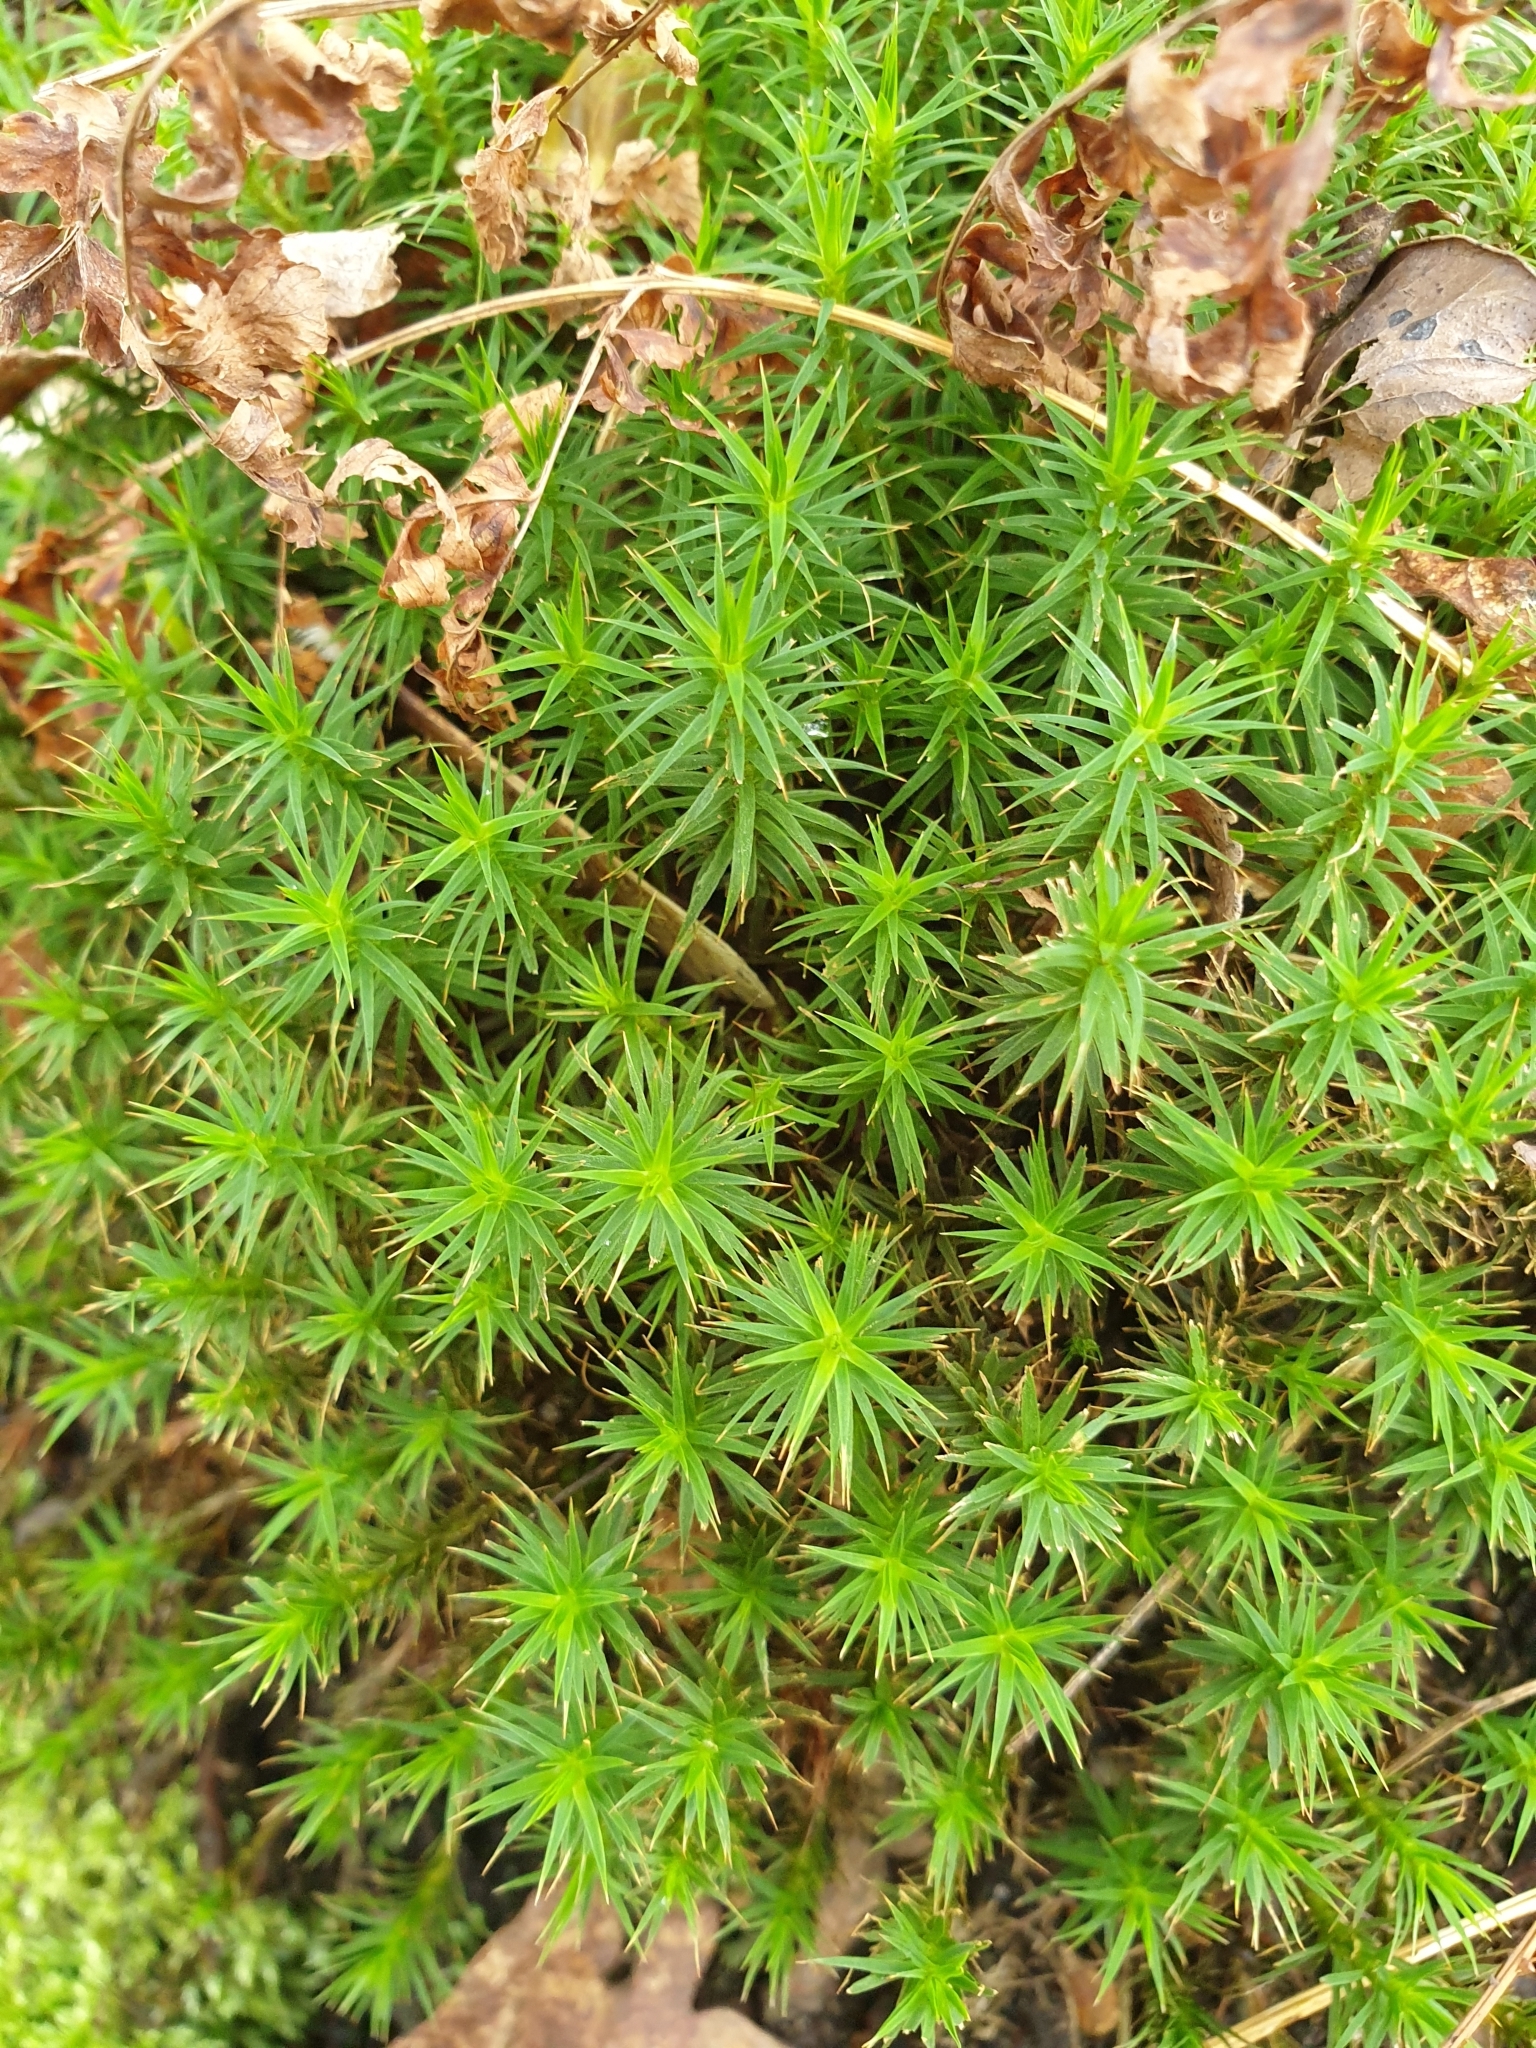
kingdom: Plantae
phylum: Bryophyta
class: Polytrichopsida
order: Polytrichales
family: Polytrichaceae
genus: Polytrichum
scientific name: Polytrichum formosum
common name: Bank haircap moss
